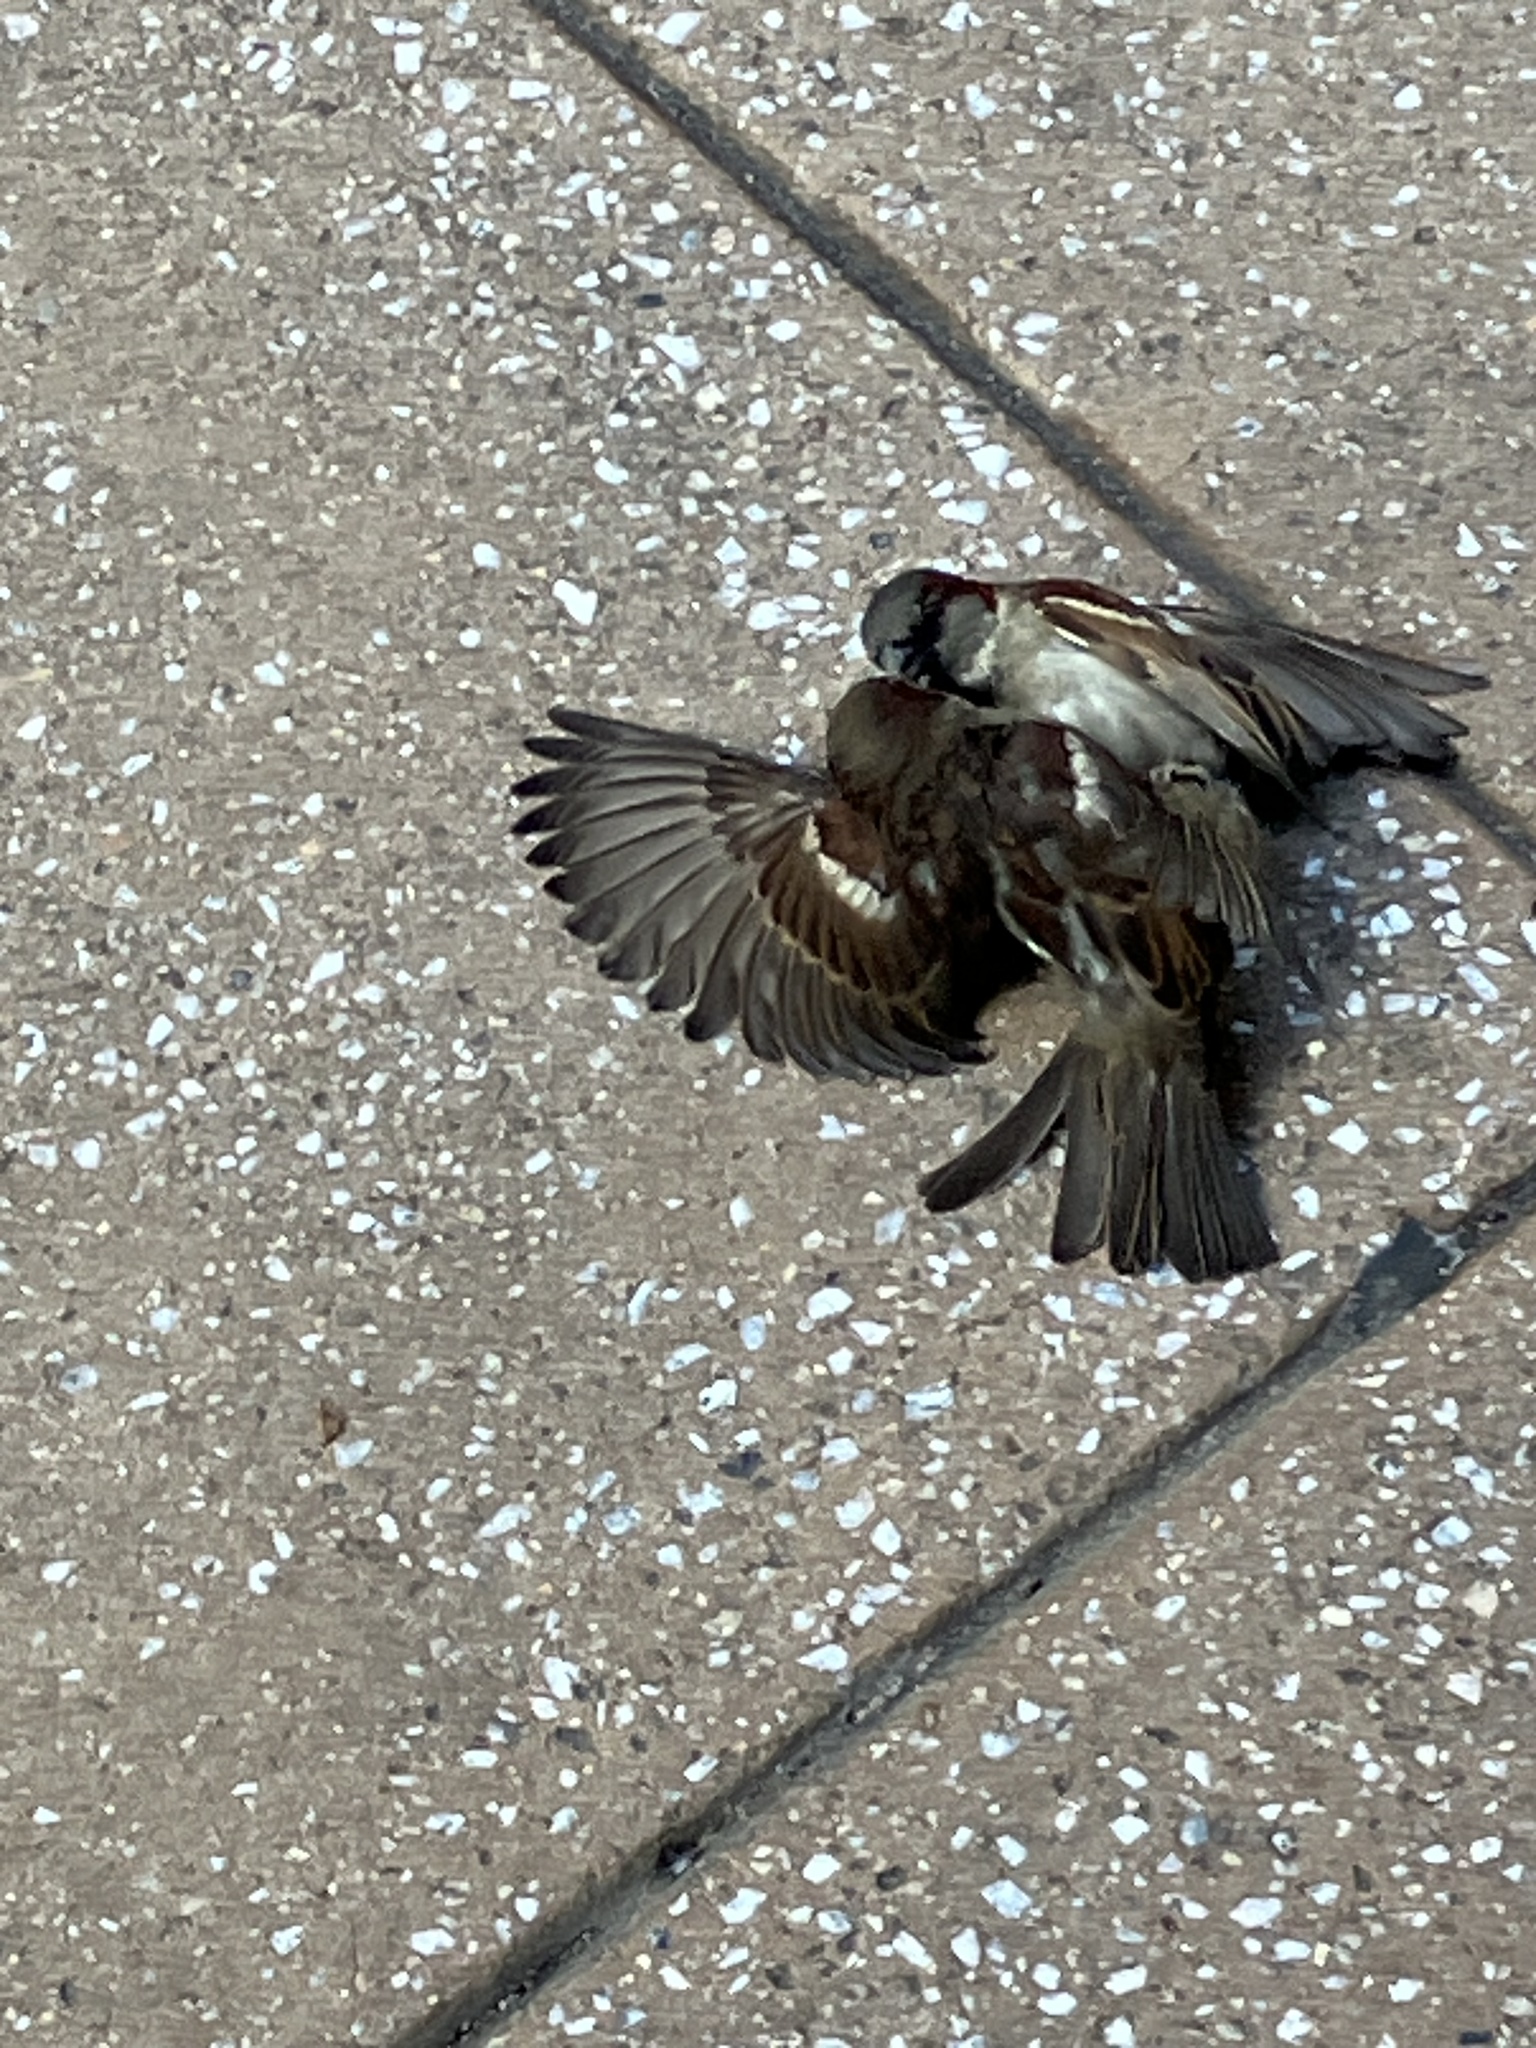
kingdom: Animalia
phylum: Chordata
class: Aves
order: Passeriformes
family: Passeridae
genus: Passer
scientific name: Passer domesticus
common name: House sparrow
